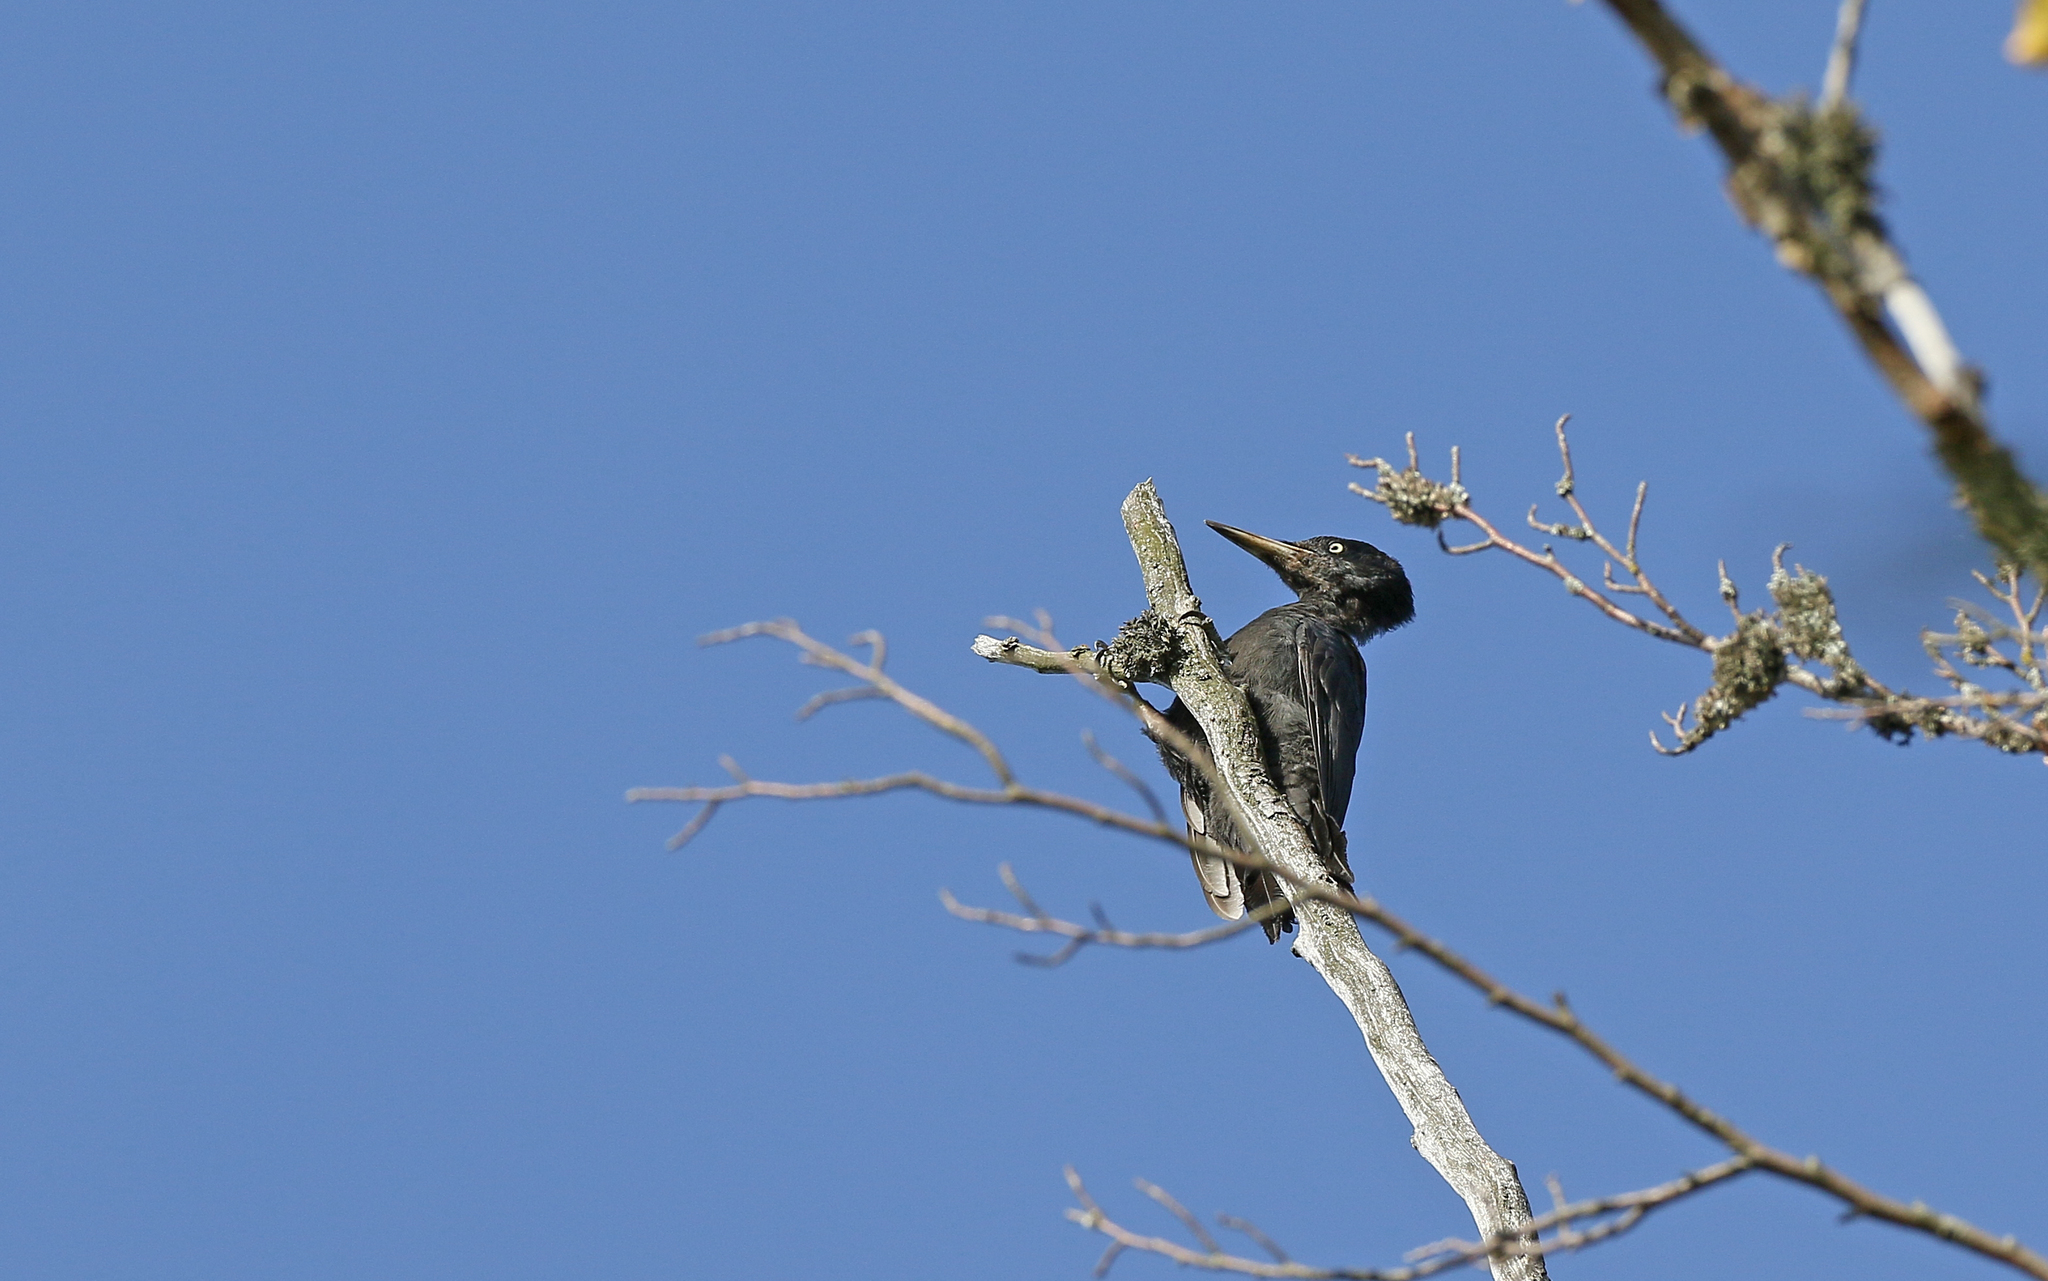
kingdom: Animalia
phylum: Chordata
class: Aves
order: Piciformes
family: Picidae
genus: Dryocopus
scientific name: Dryocopus martius
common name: Black woodpecker
